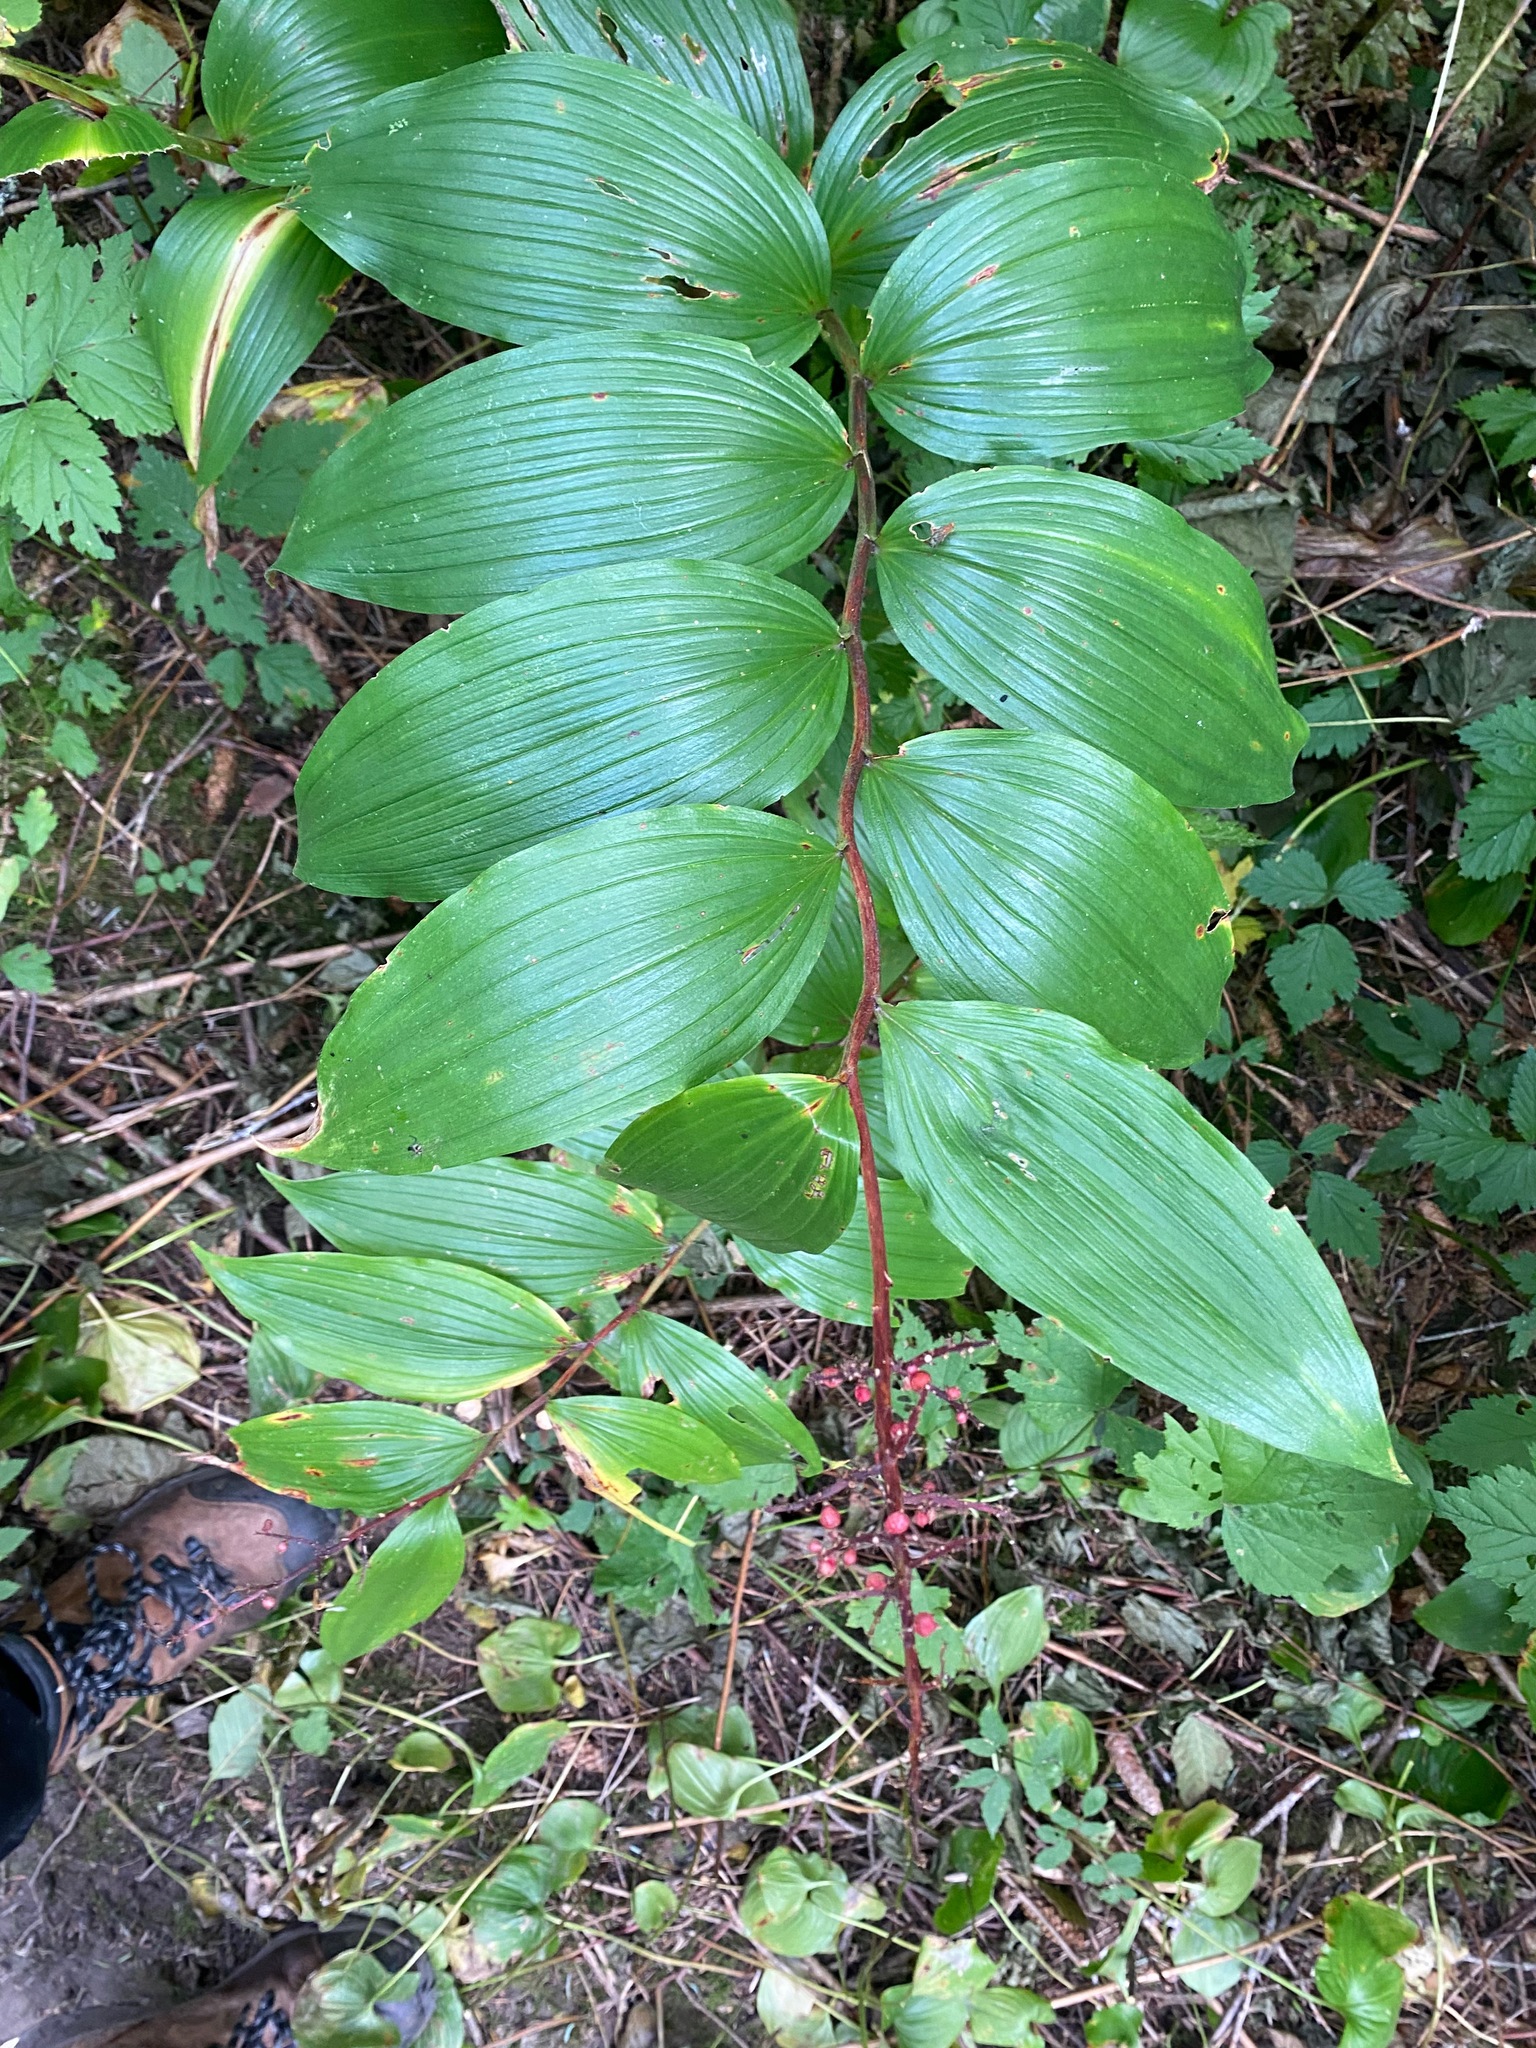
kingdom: Plantae
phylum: Tracheophyta
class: Liliopsida
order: Asparagales
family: Asparagaceae
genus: Maianthemum
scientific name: Maianthemum racemosum
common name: False spikenard
